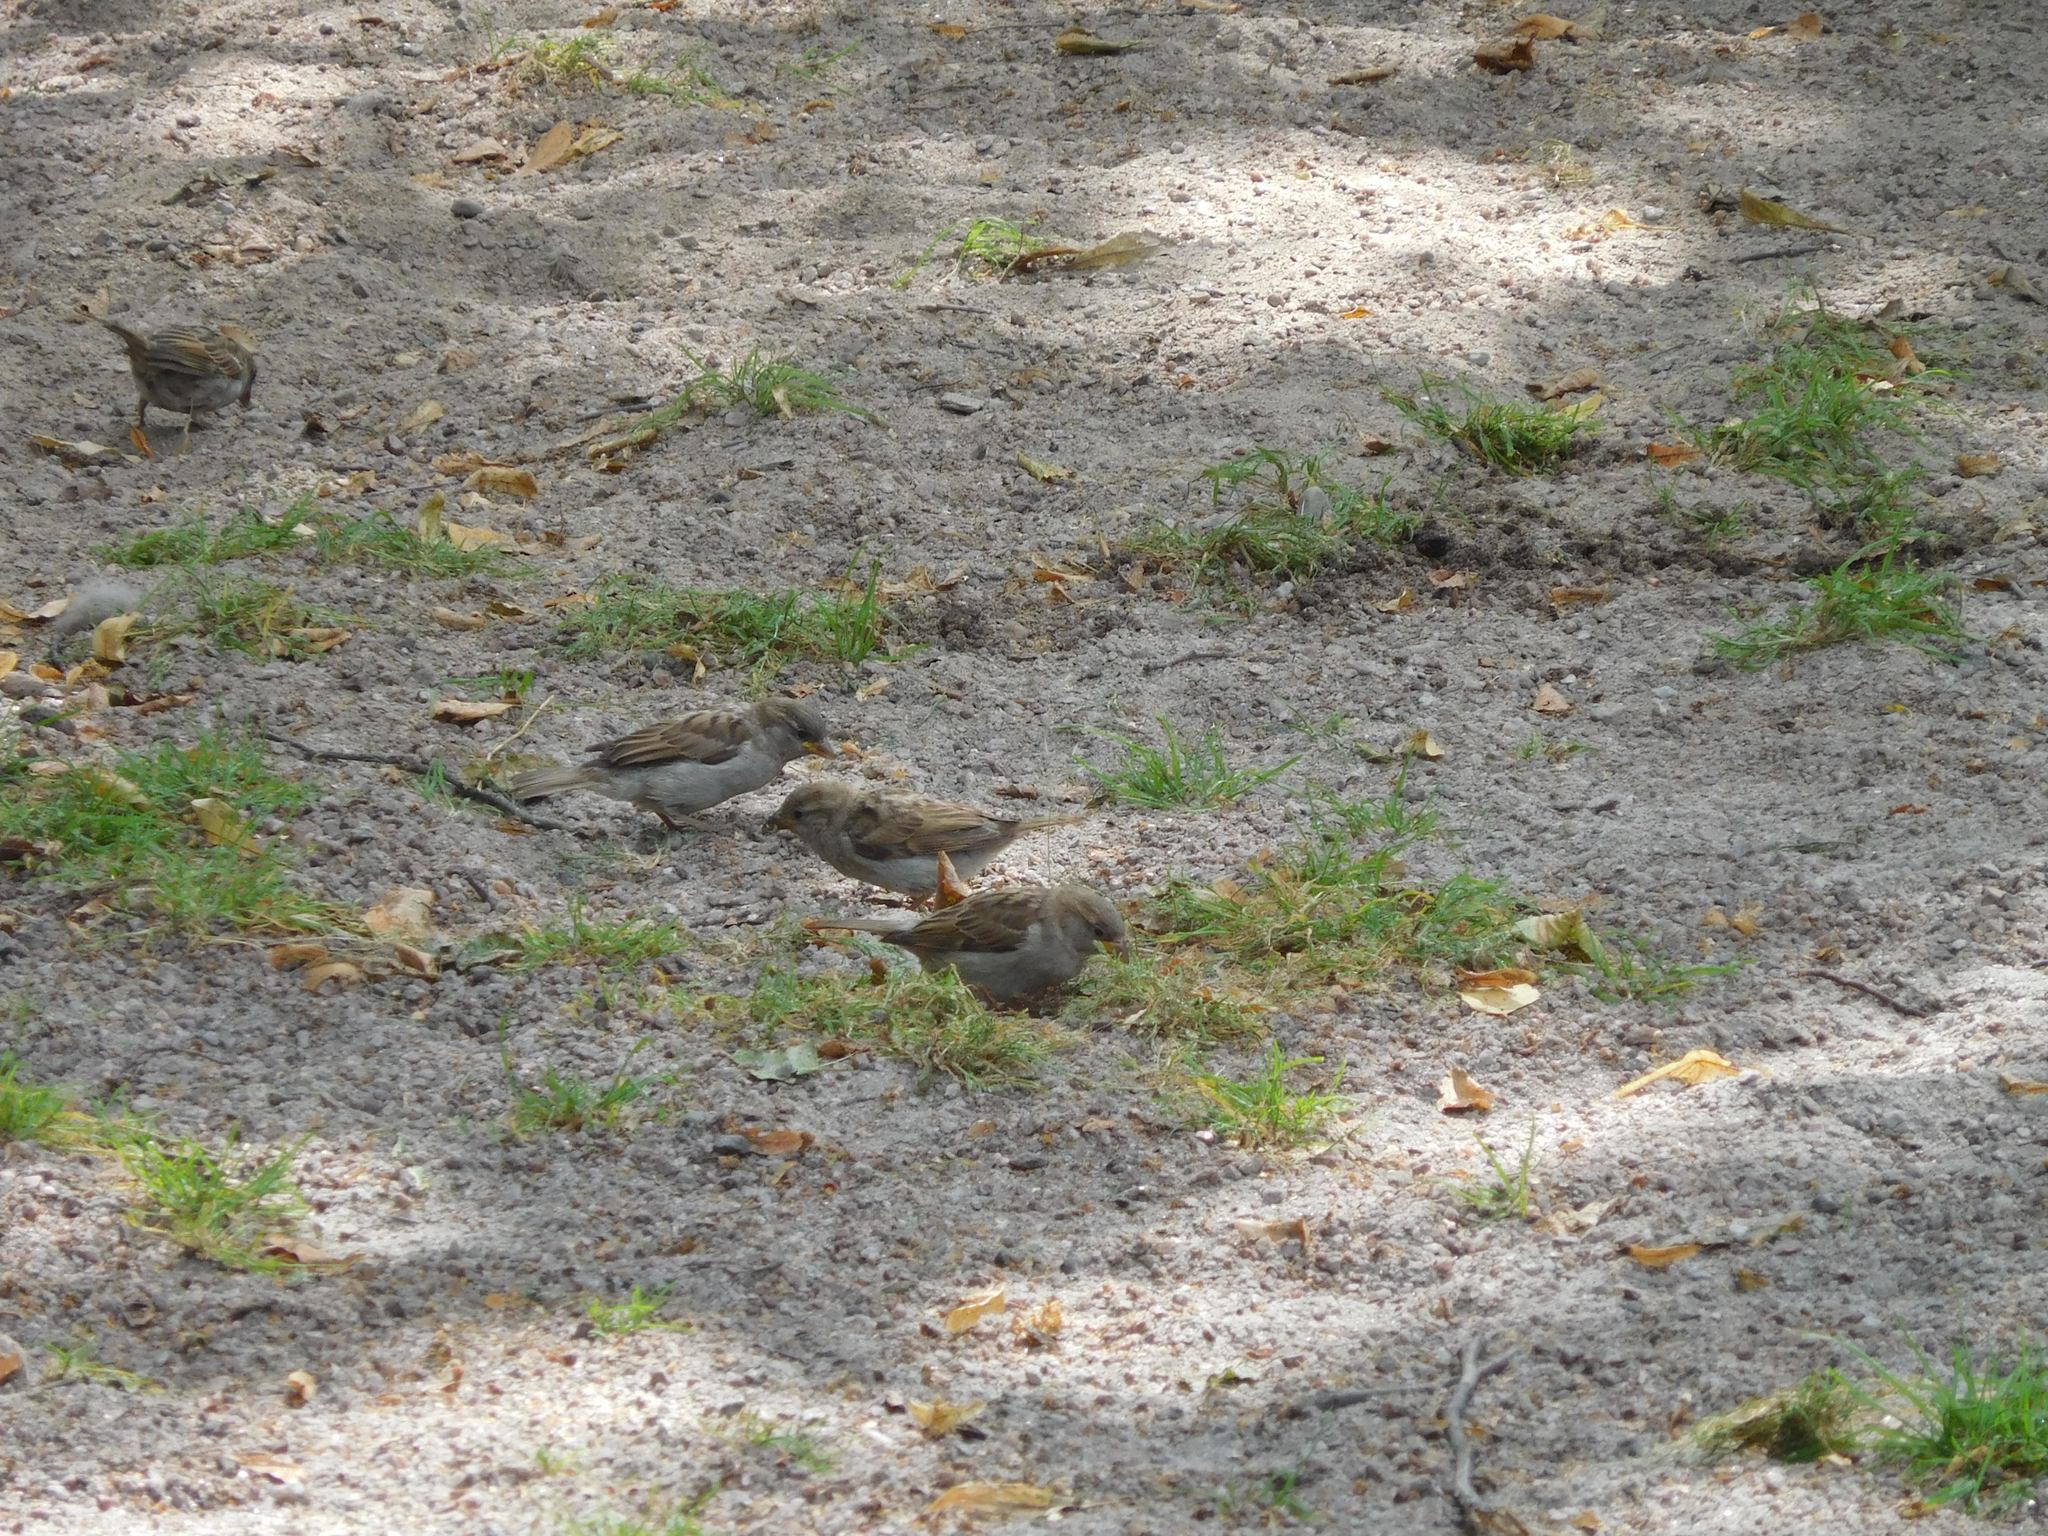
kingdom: Animalia
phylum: Chordata
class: Aves
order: Passeriformes
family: Passeridae
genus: Passer
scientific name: Passer domesticus
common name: House sparrow
